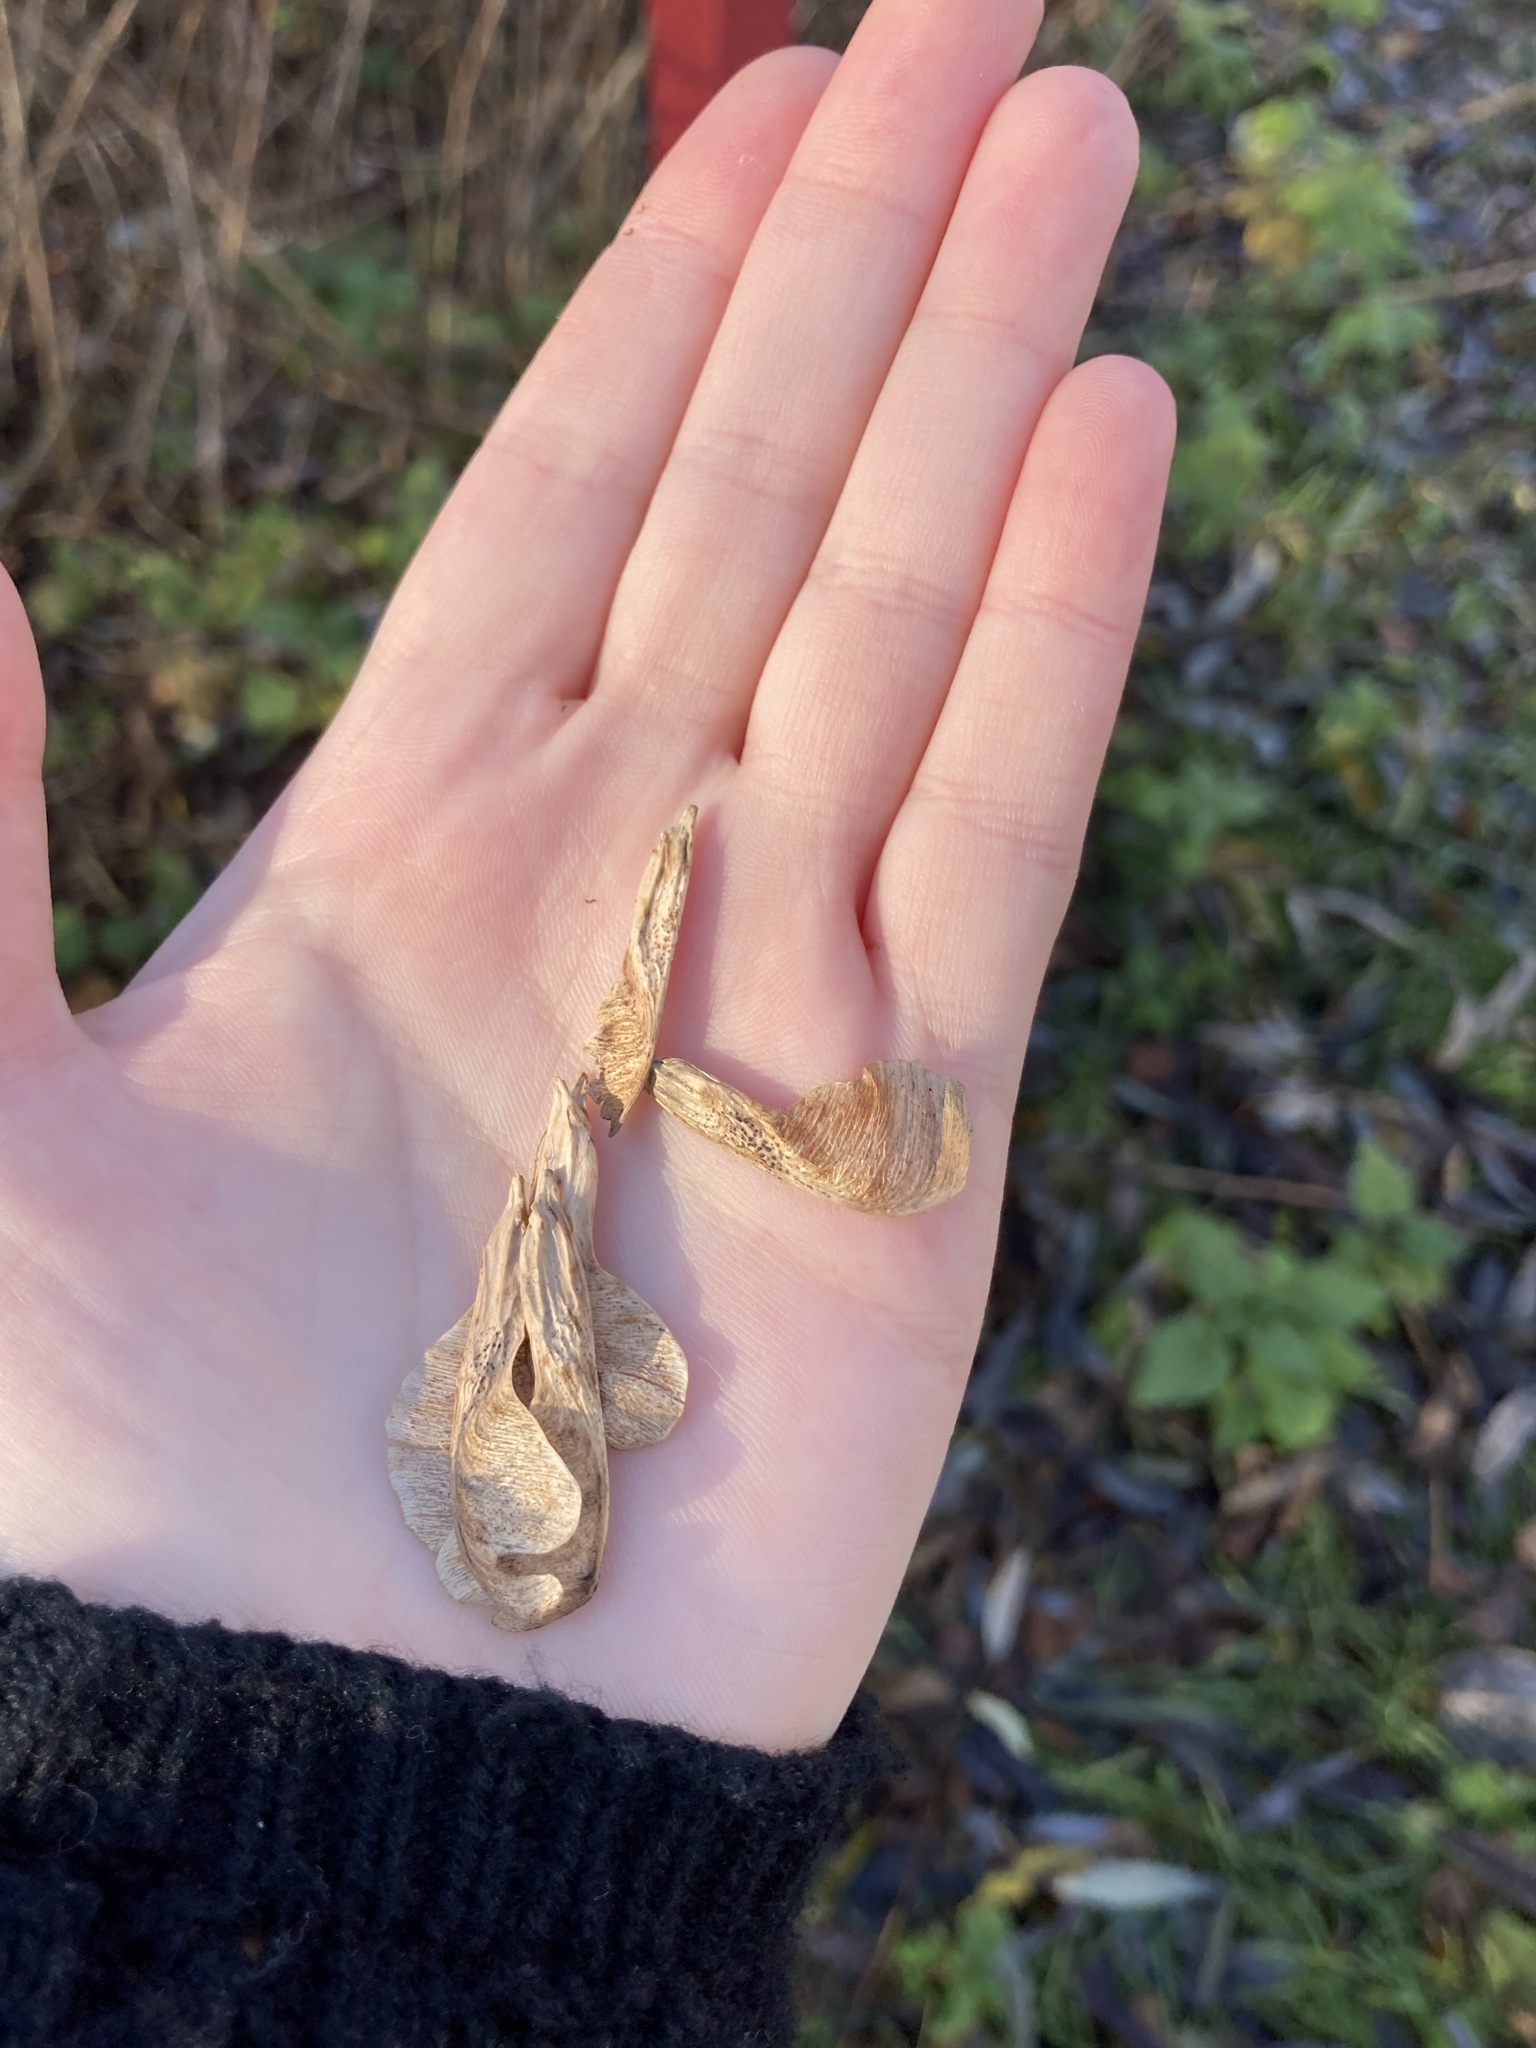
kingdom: Plantae
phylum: Tracheophyta
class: Magnoliopsida
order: Sapindales
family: Sapindaceae
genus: Acer
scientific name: Acer negundo
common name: Ashleaf maple
